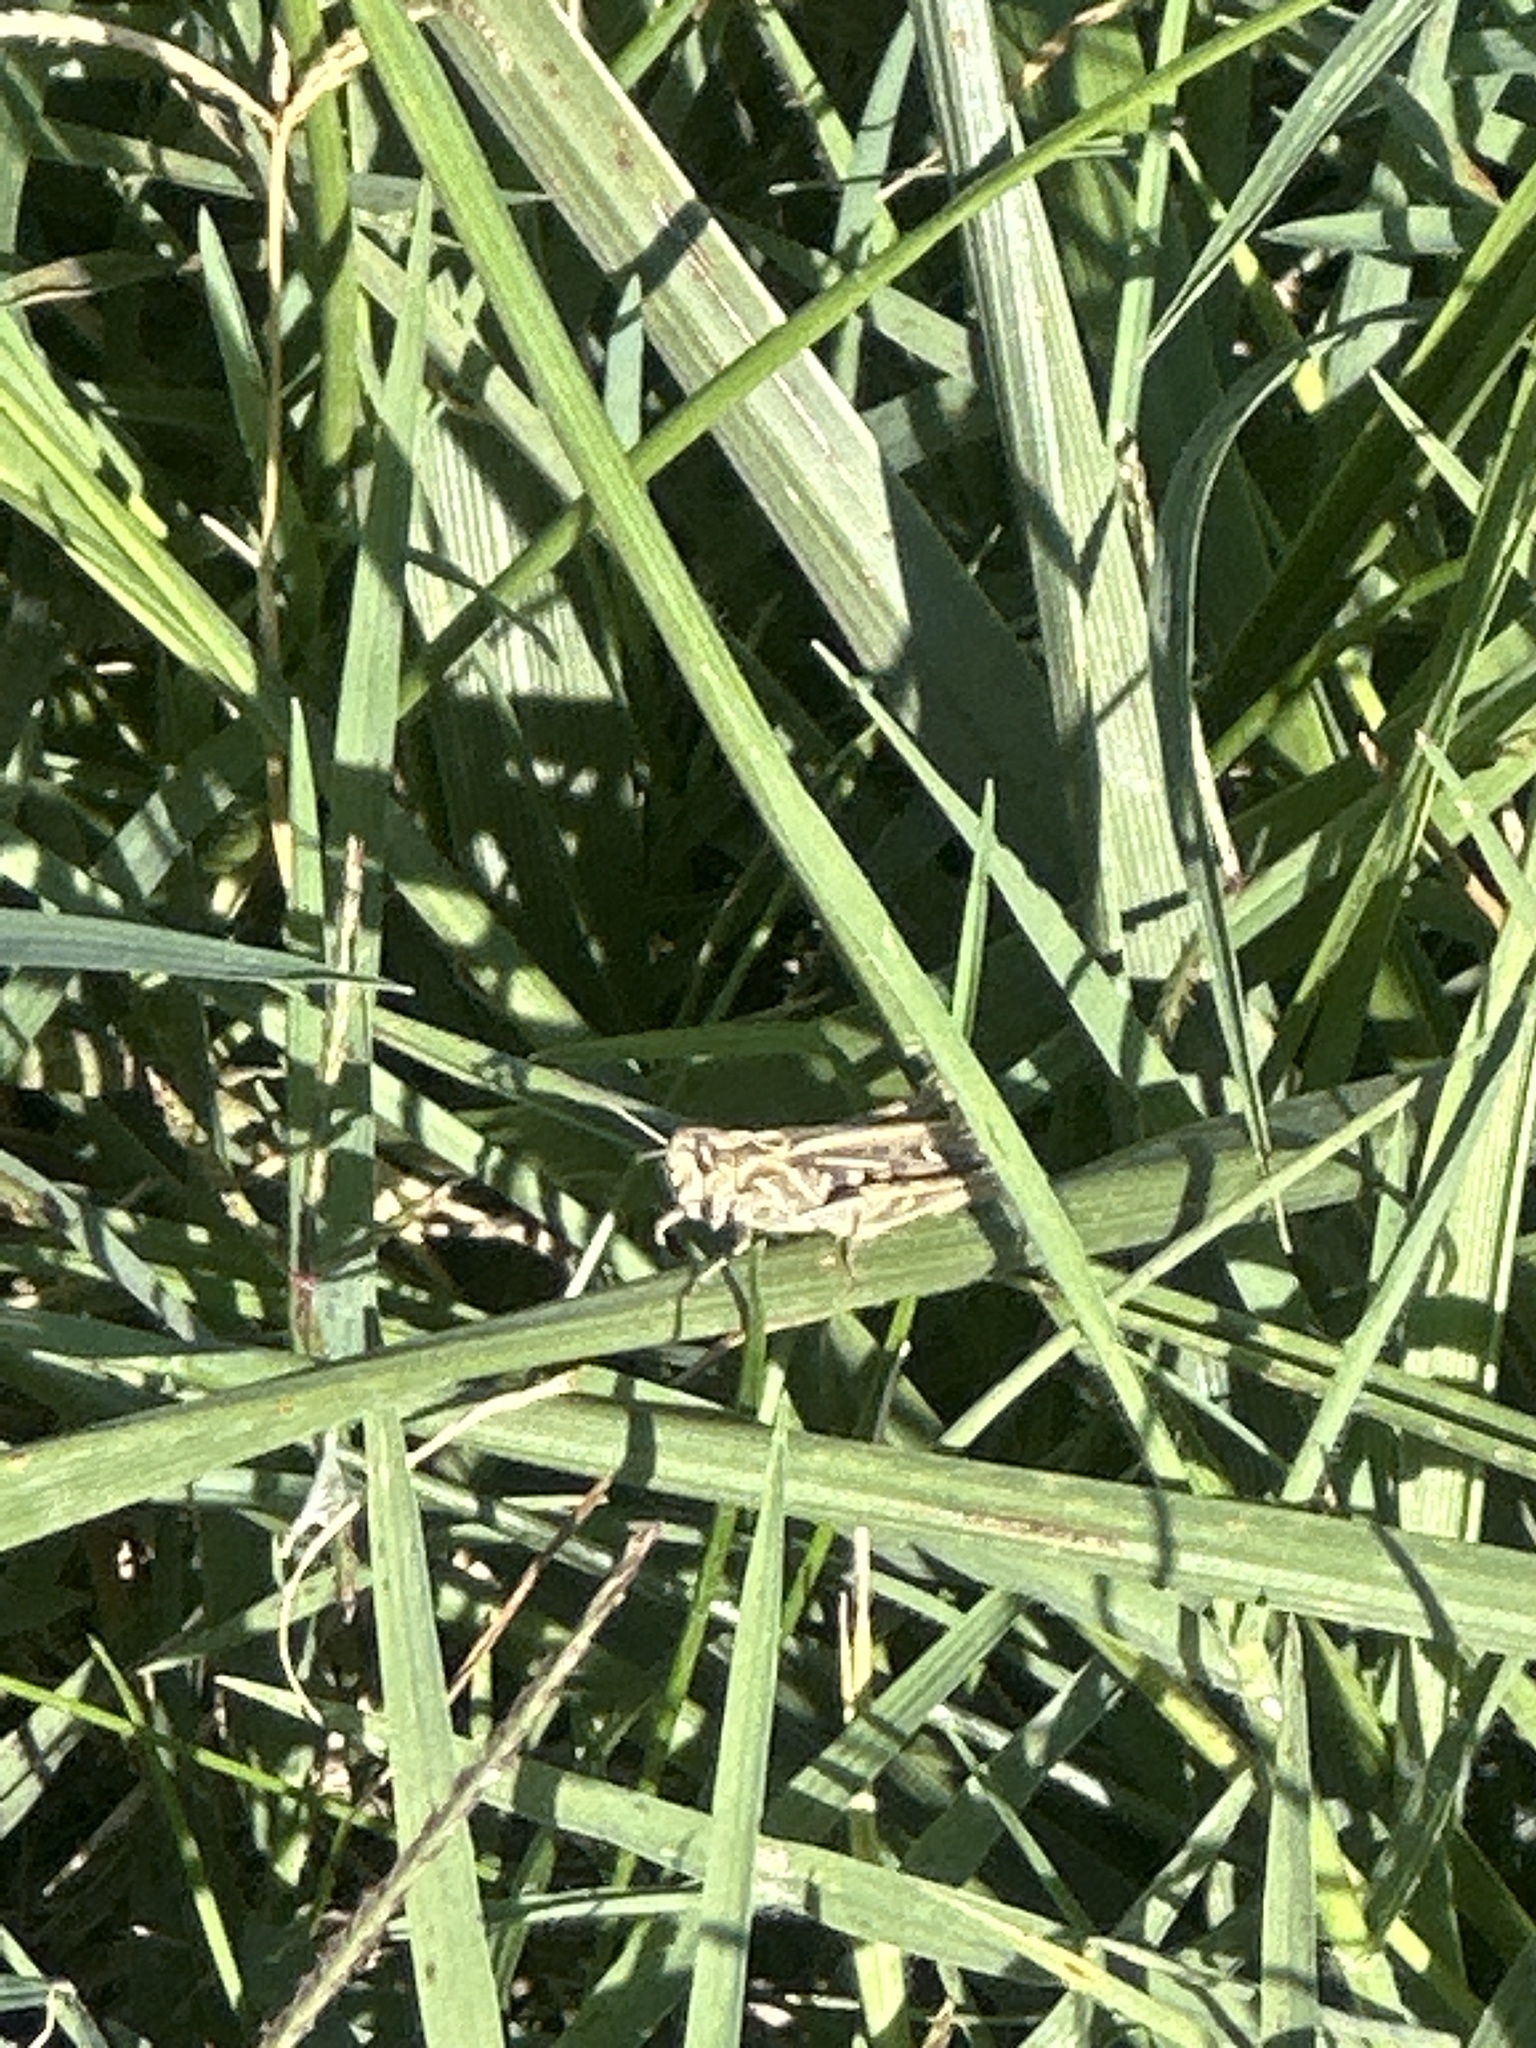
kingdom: Animalia
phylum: Arthropoda
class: Insecta
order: Orthoptera
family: Acrididae
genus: Chorthippus
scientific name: Chorthippus mollis
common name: Lesser field grasshopper
